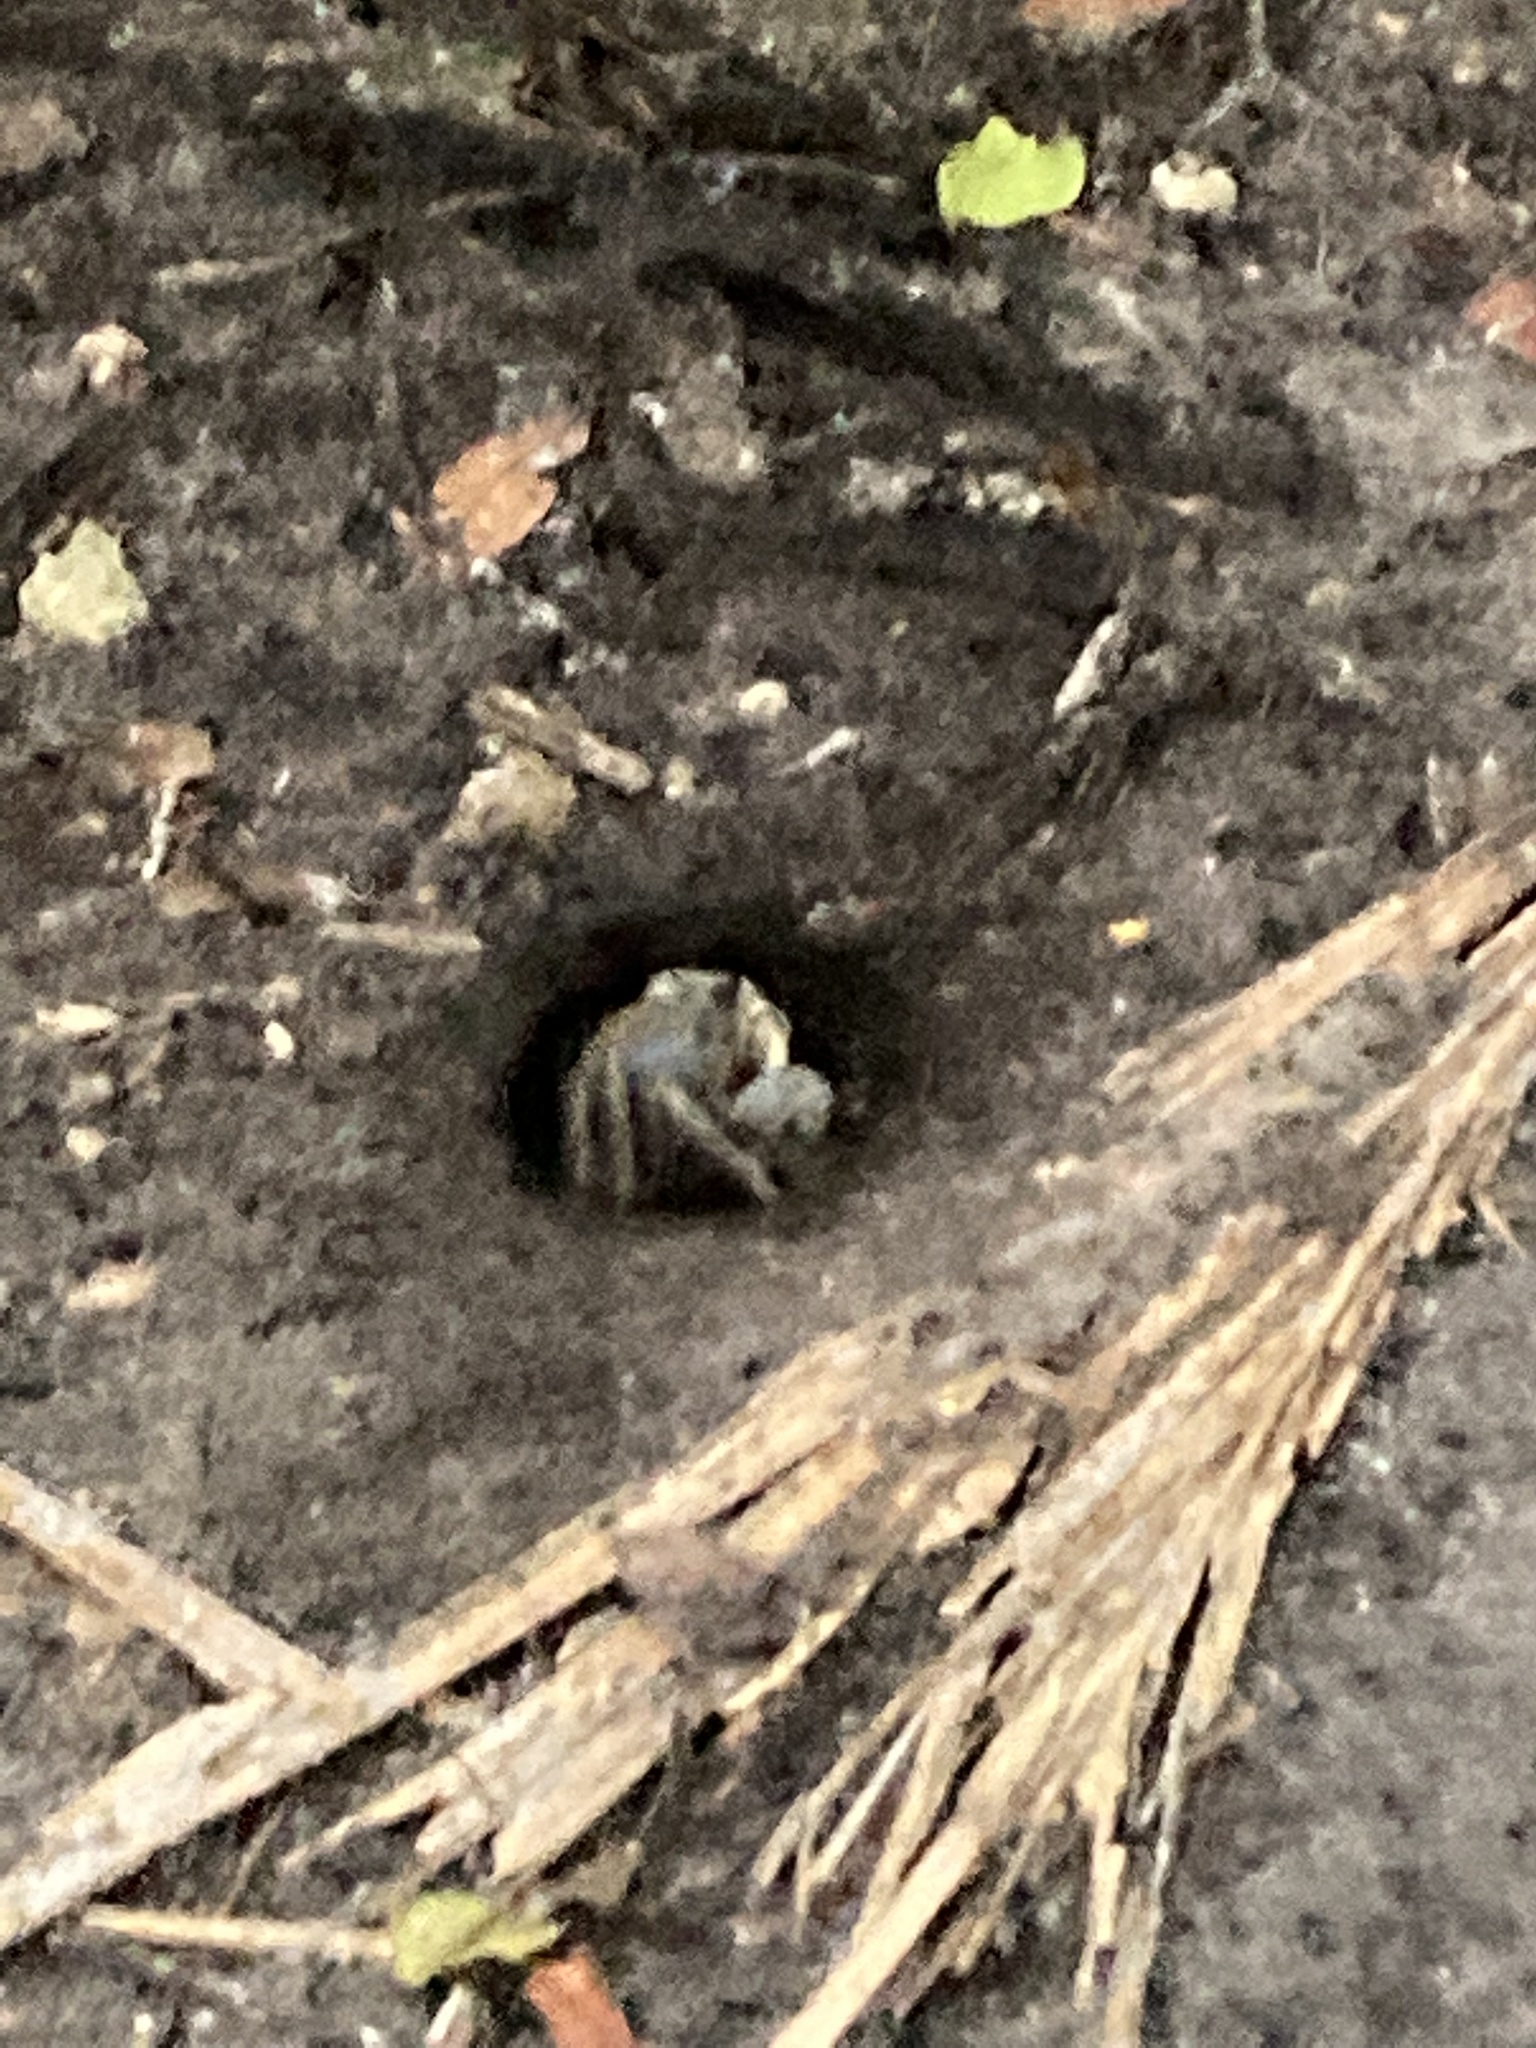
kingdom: Animalia
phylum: Arthropoda
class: Malacostraca
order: Decapoda
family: Gecarcinidae
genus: Cardisoma
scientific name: Cardisoma guanhumi
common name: Great land crab
